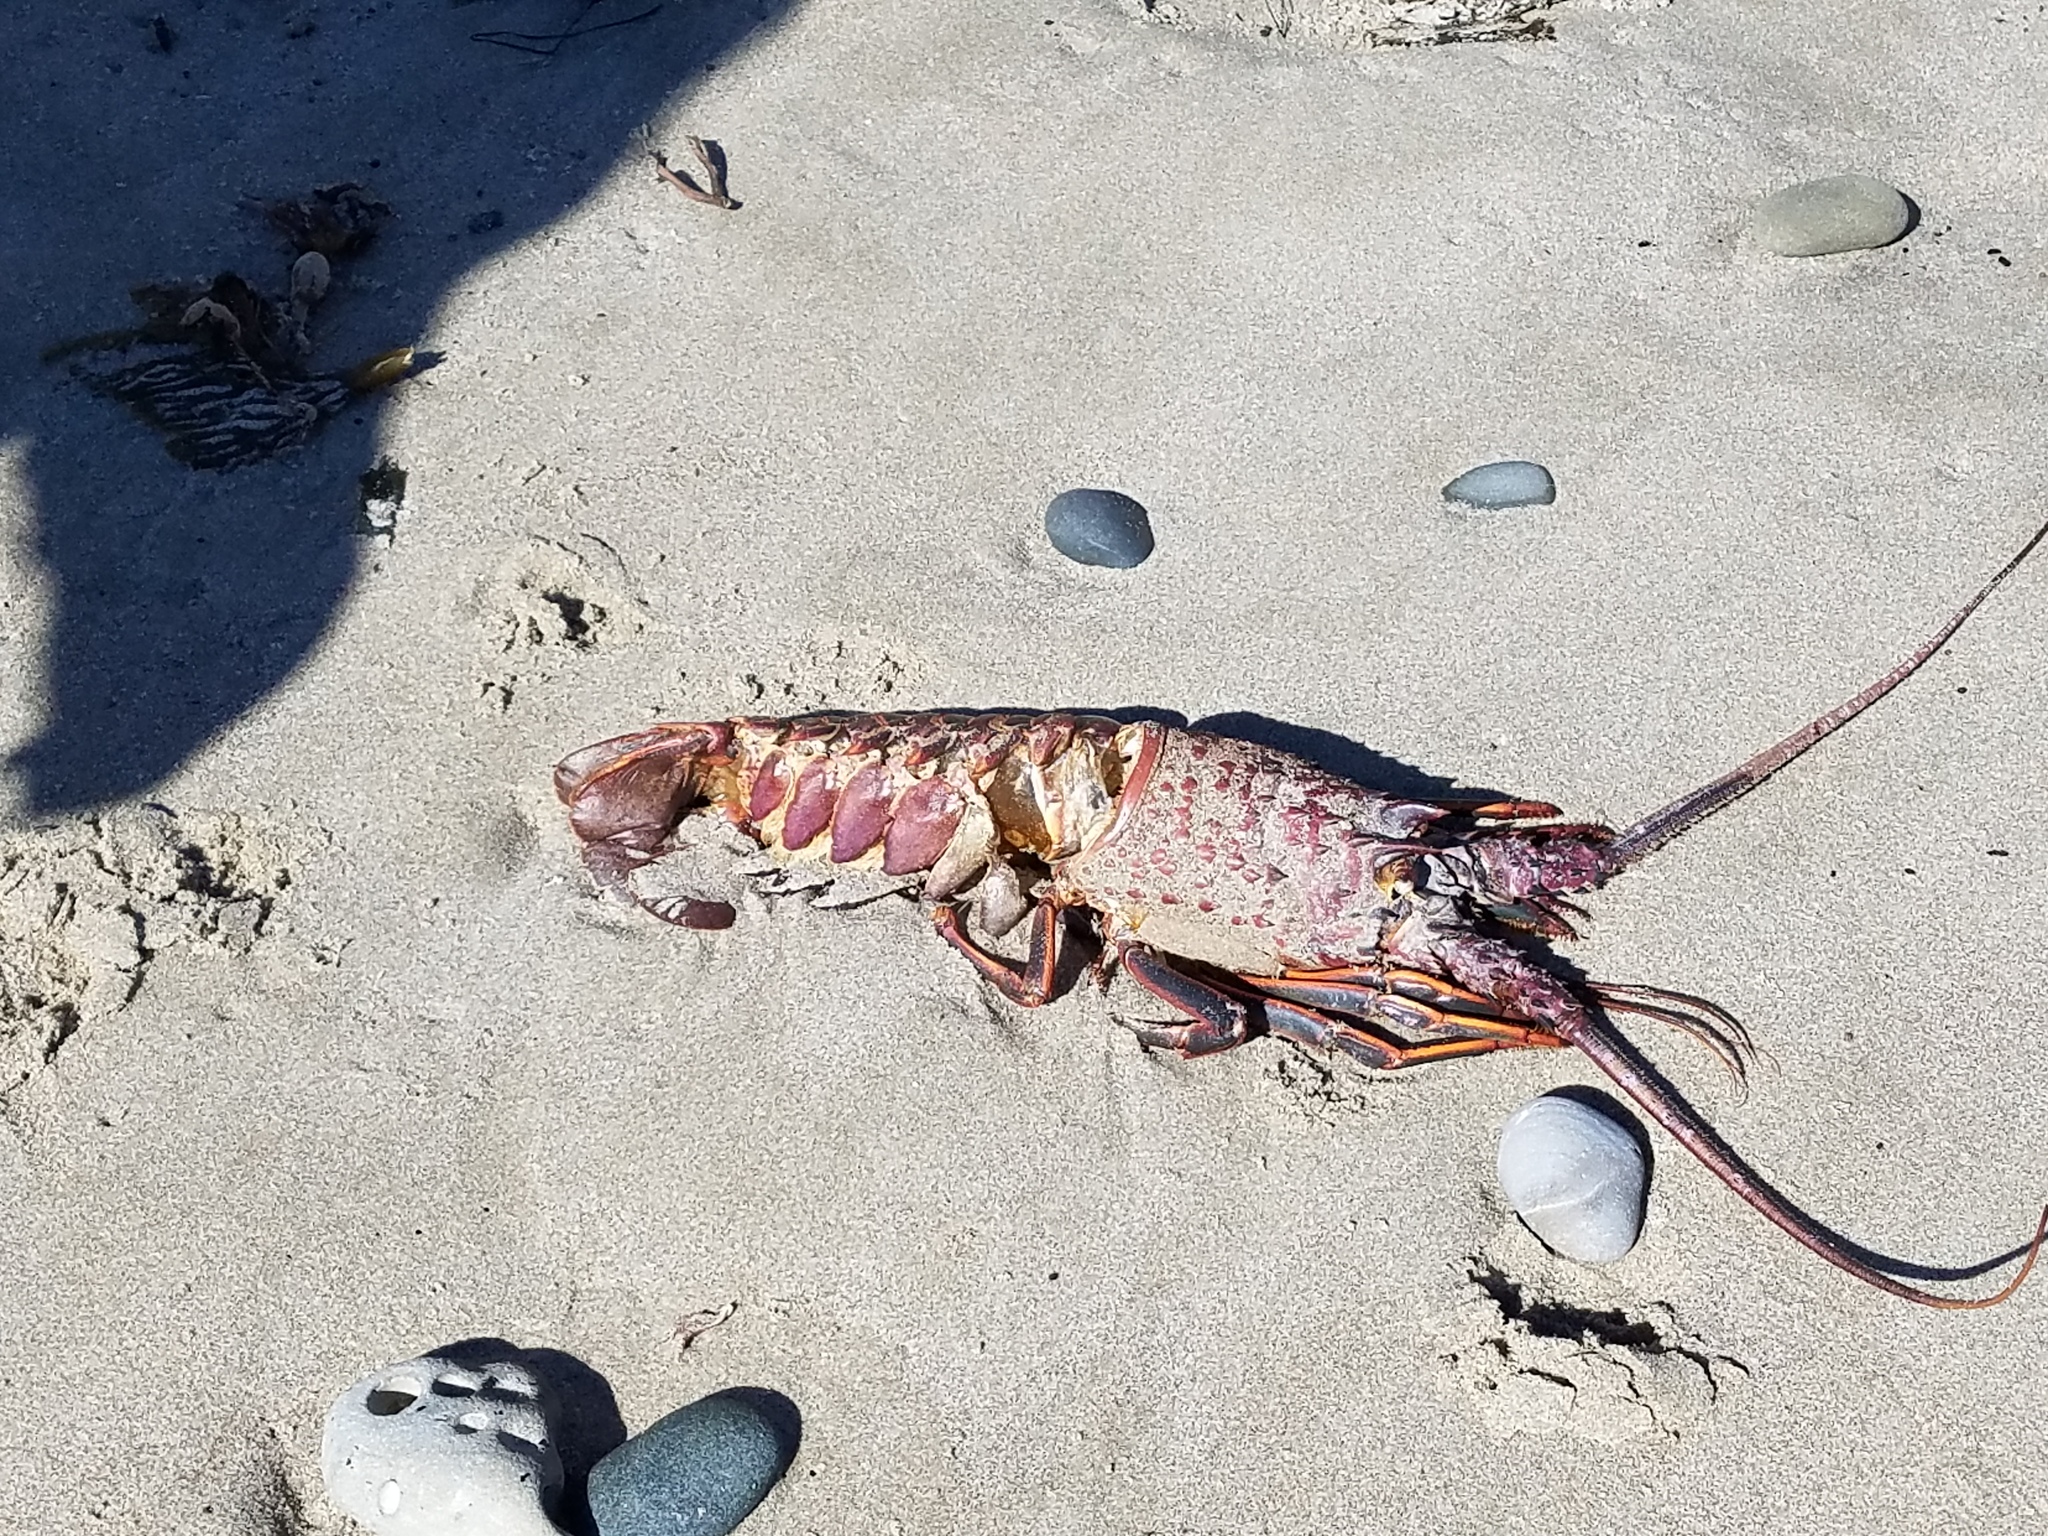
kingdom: Animalia
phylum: Arthropoda
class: Malacostraca
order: Decapoda
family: Palinuridae
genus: Panulirus
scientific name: Panulirus interruptus
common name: California spiny lobster
